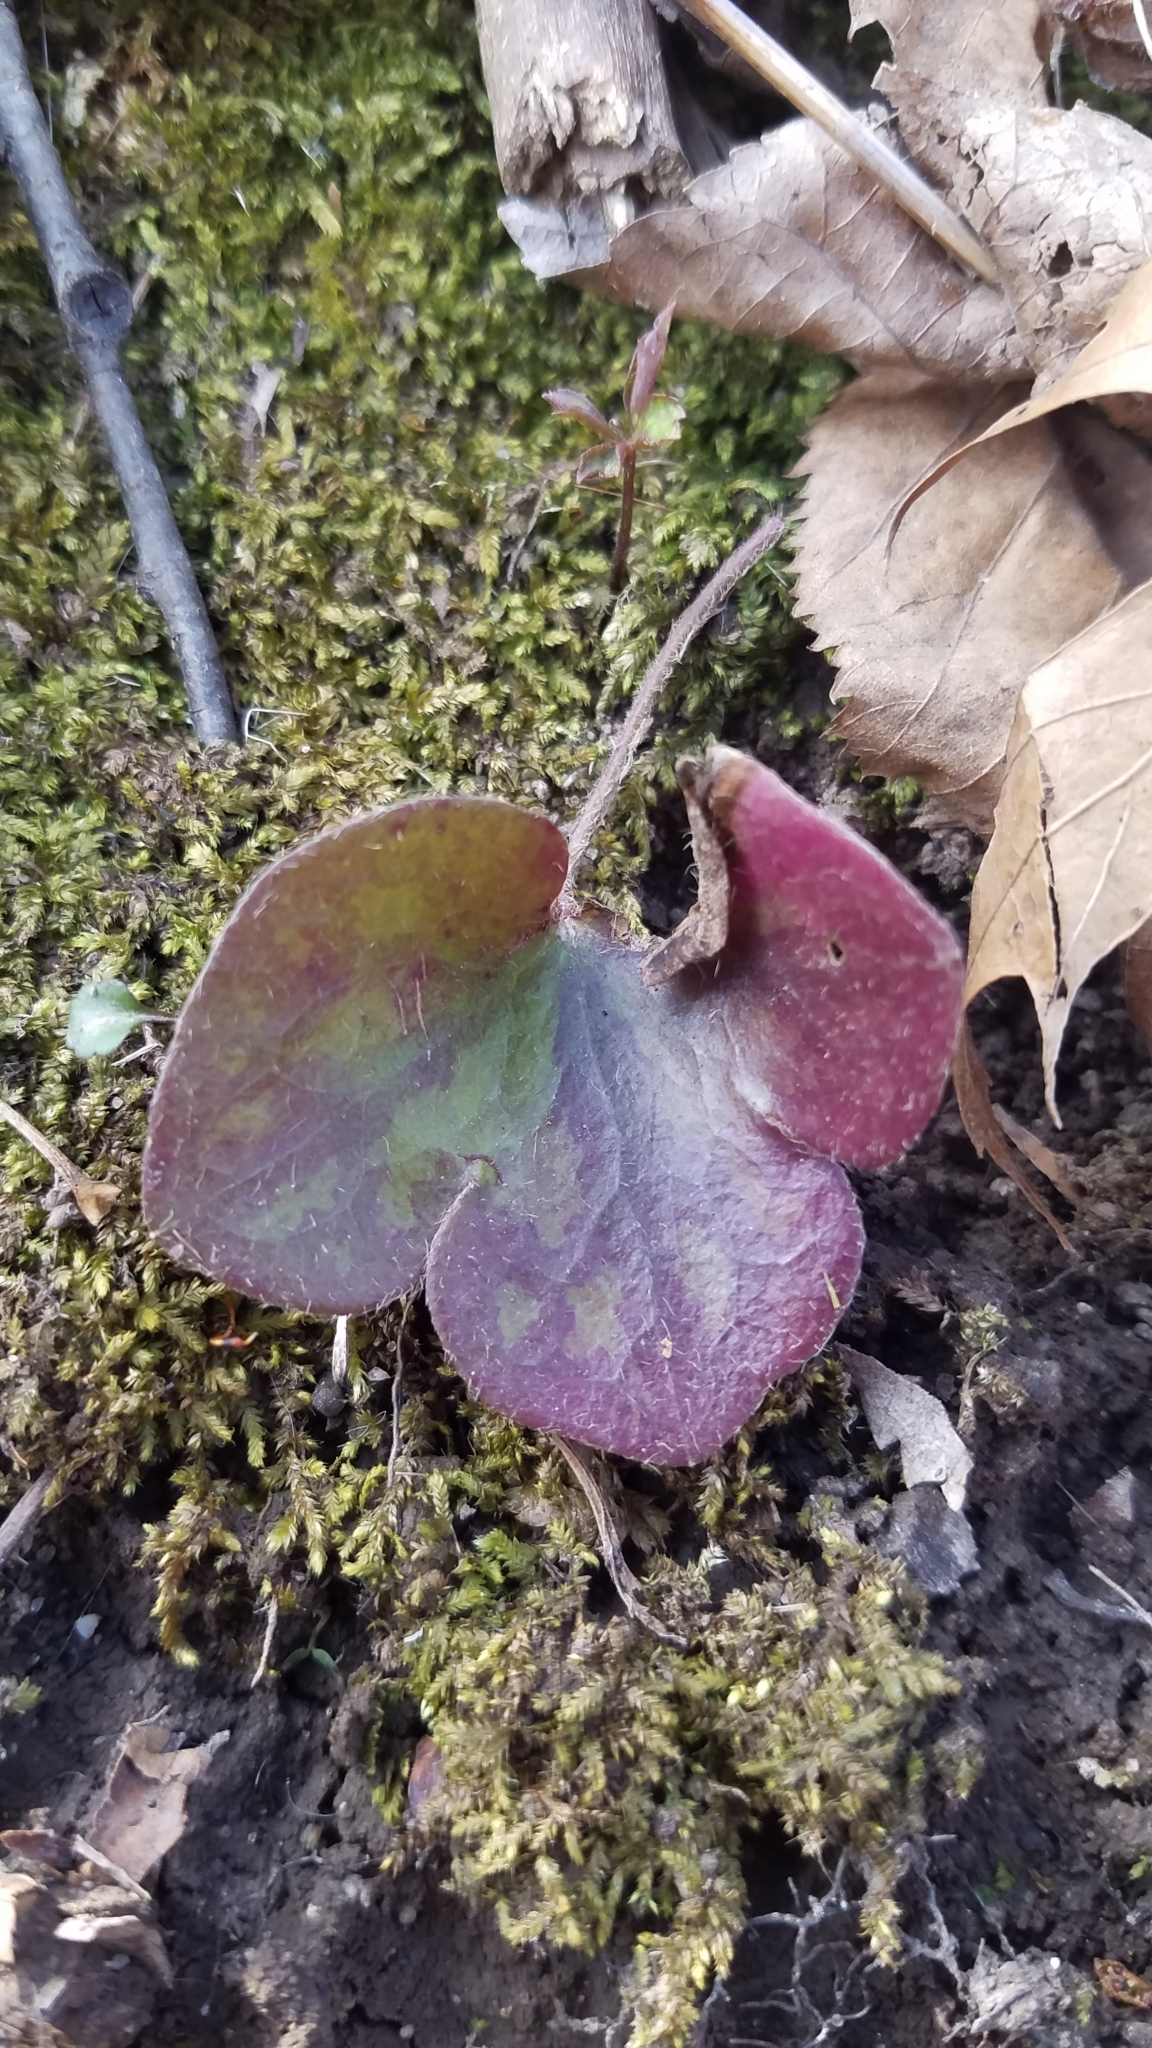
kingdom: Plantae
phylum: Tracheophyta
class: Magnoliopsida
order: Ranunculales
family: Ranunculaceae
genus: Hepatica
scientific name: Hepatica americana
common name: American hepatica
